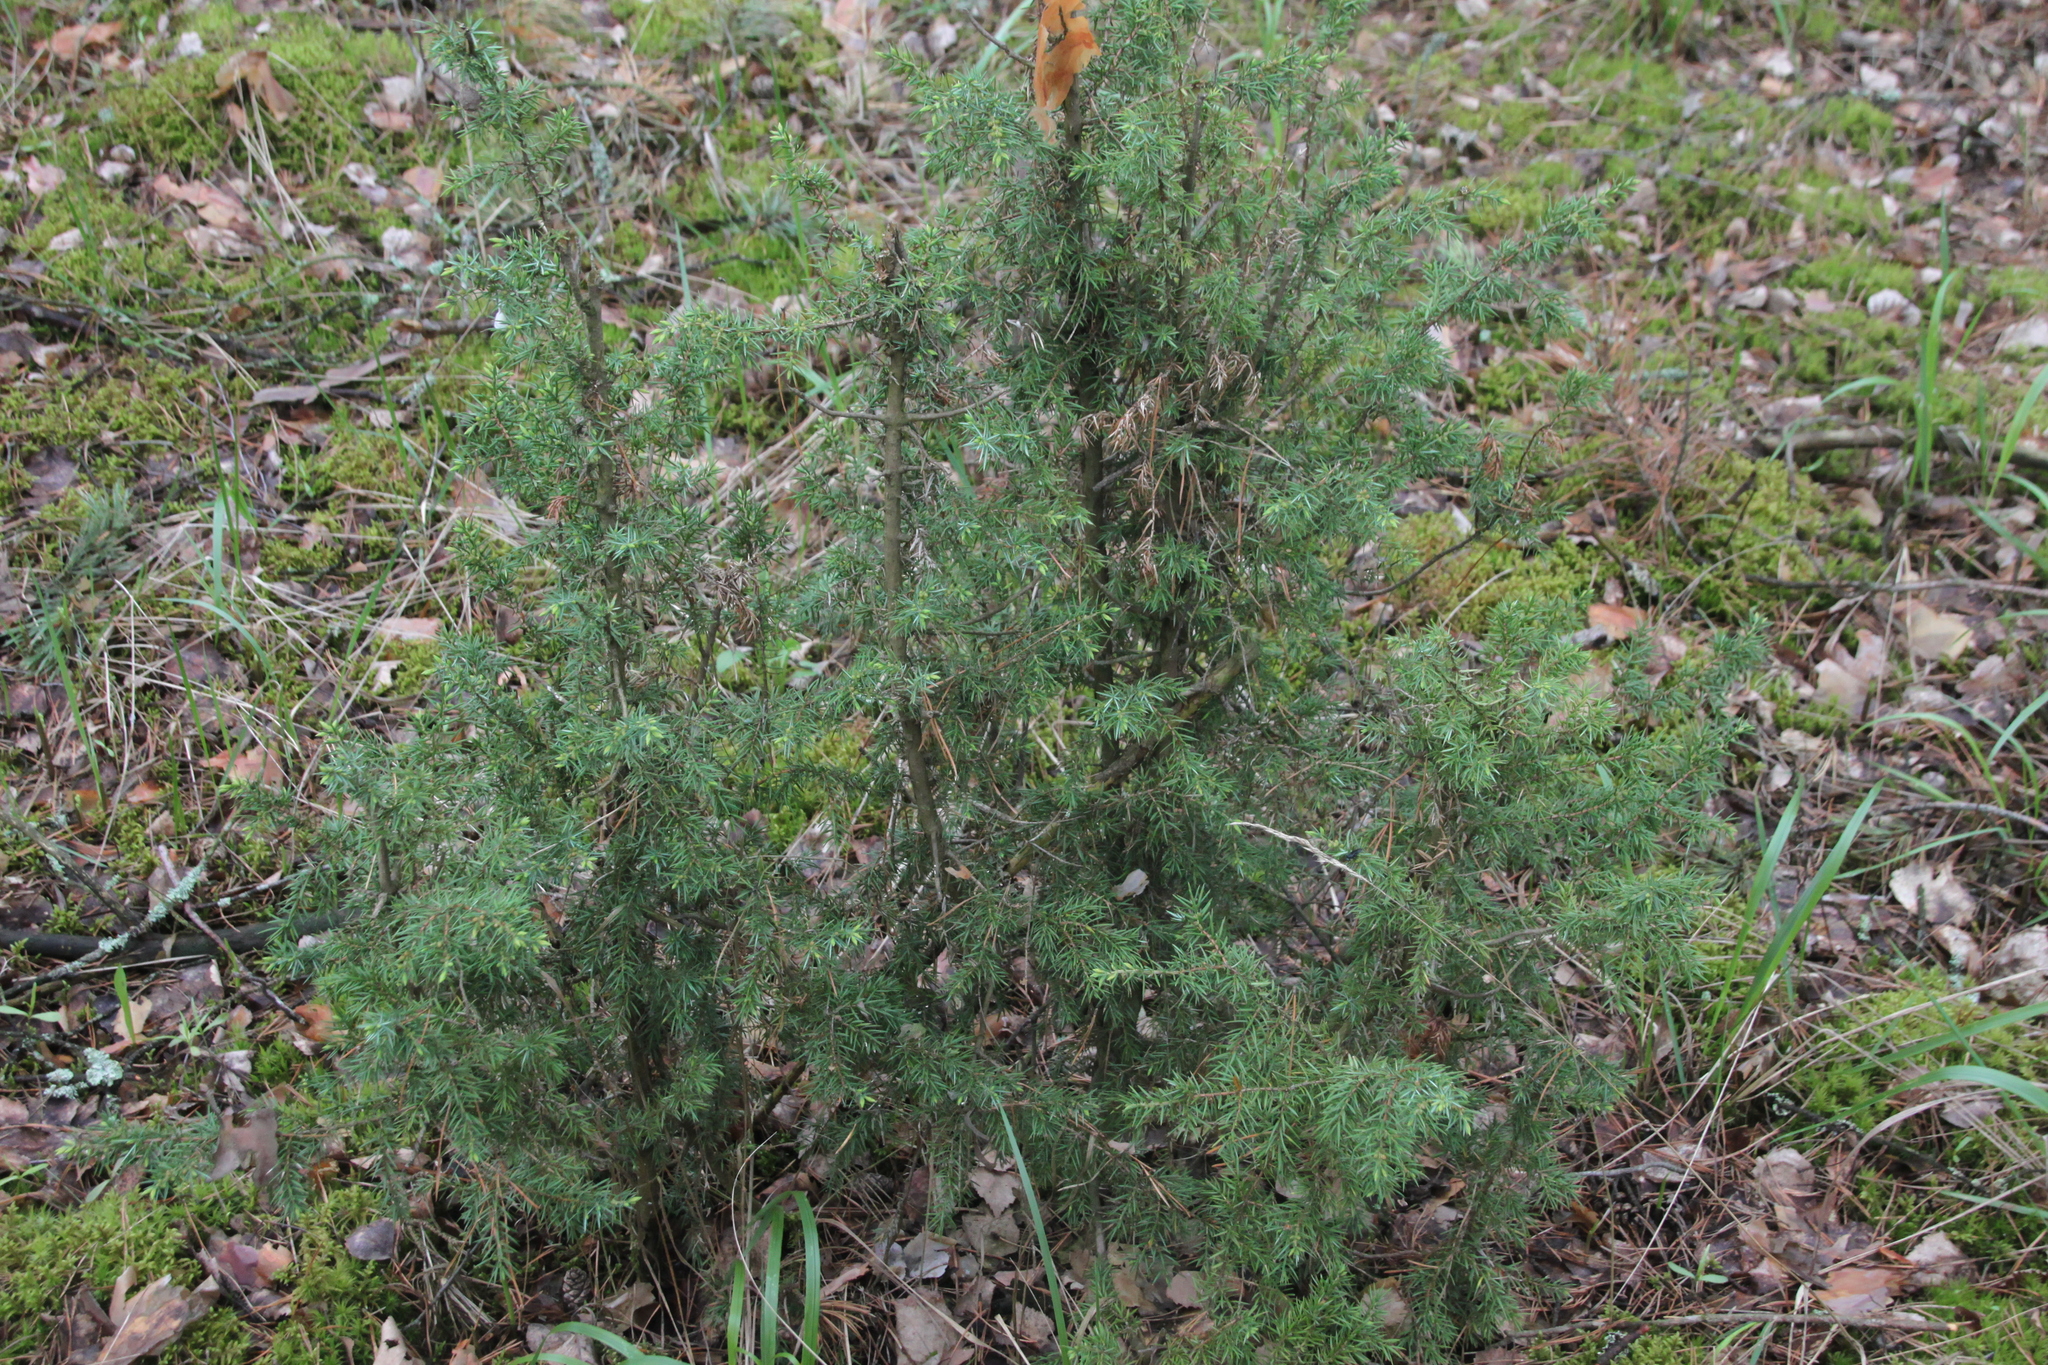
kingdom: Plantae
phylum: Tracheophyta
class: Pinopsida
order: Pinales
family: Cupressaceae
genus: Juniperus
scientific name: Juniperus communis
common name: Common juniper
